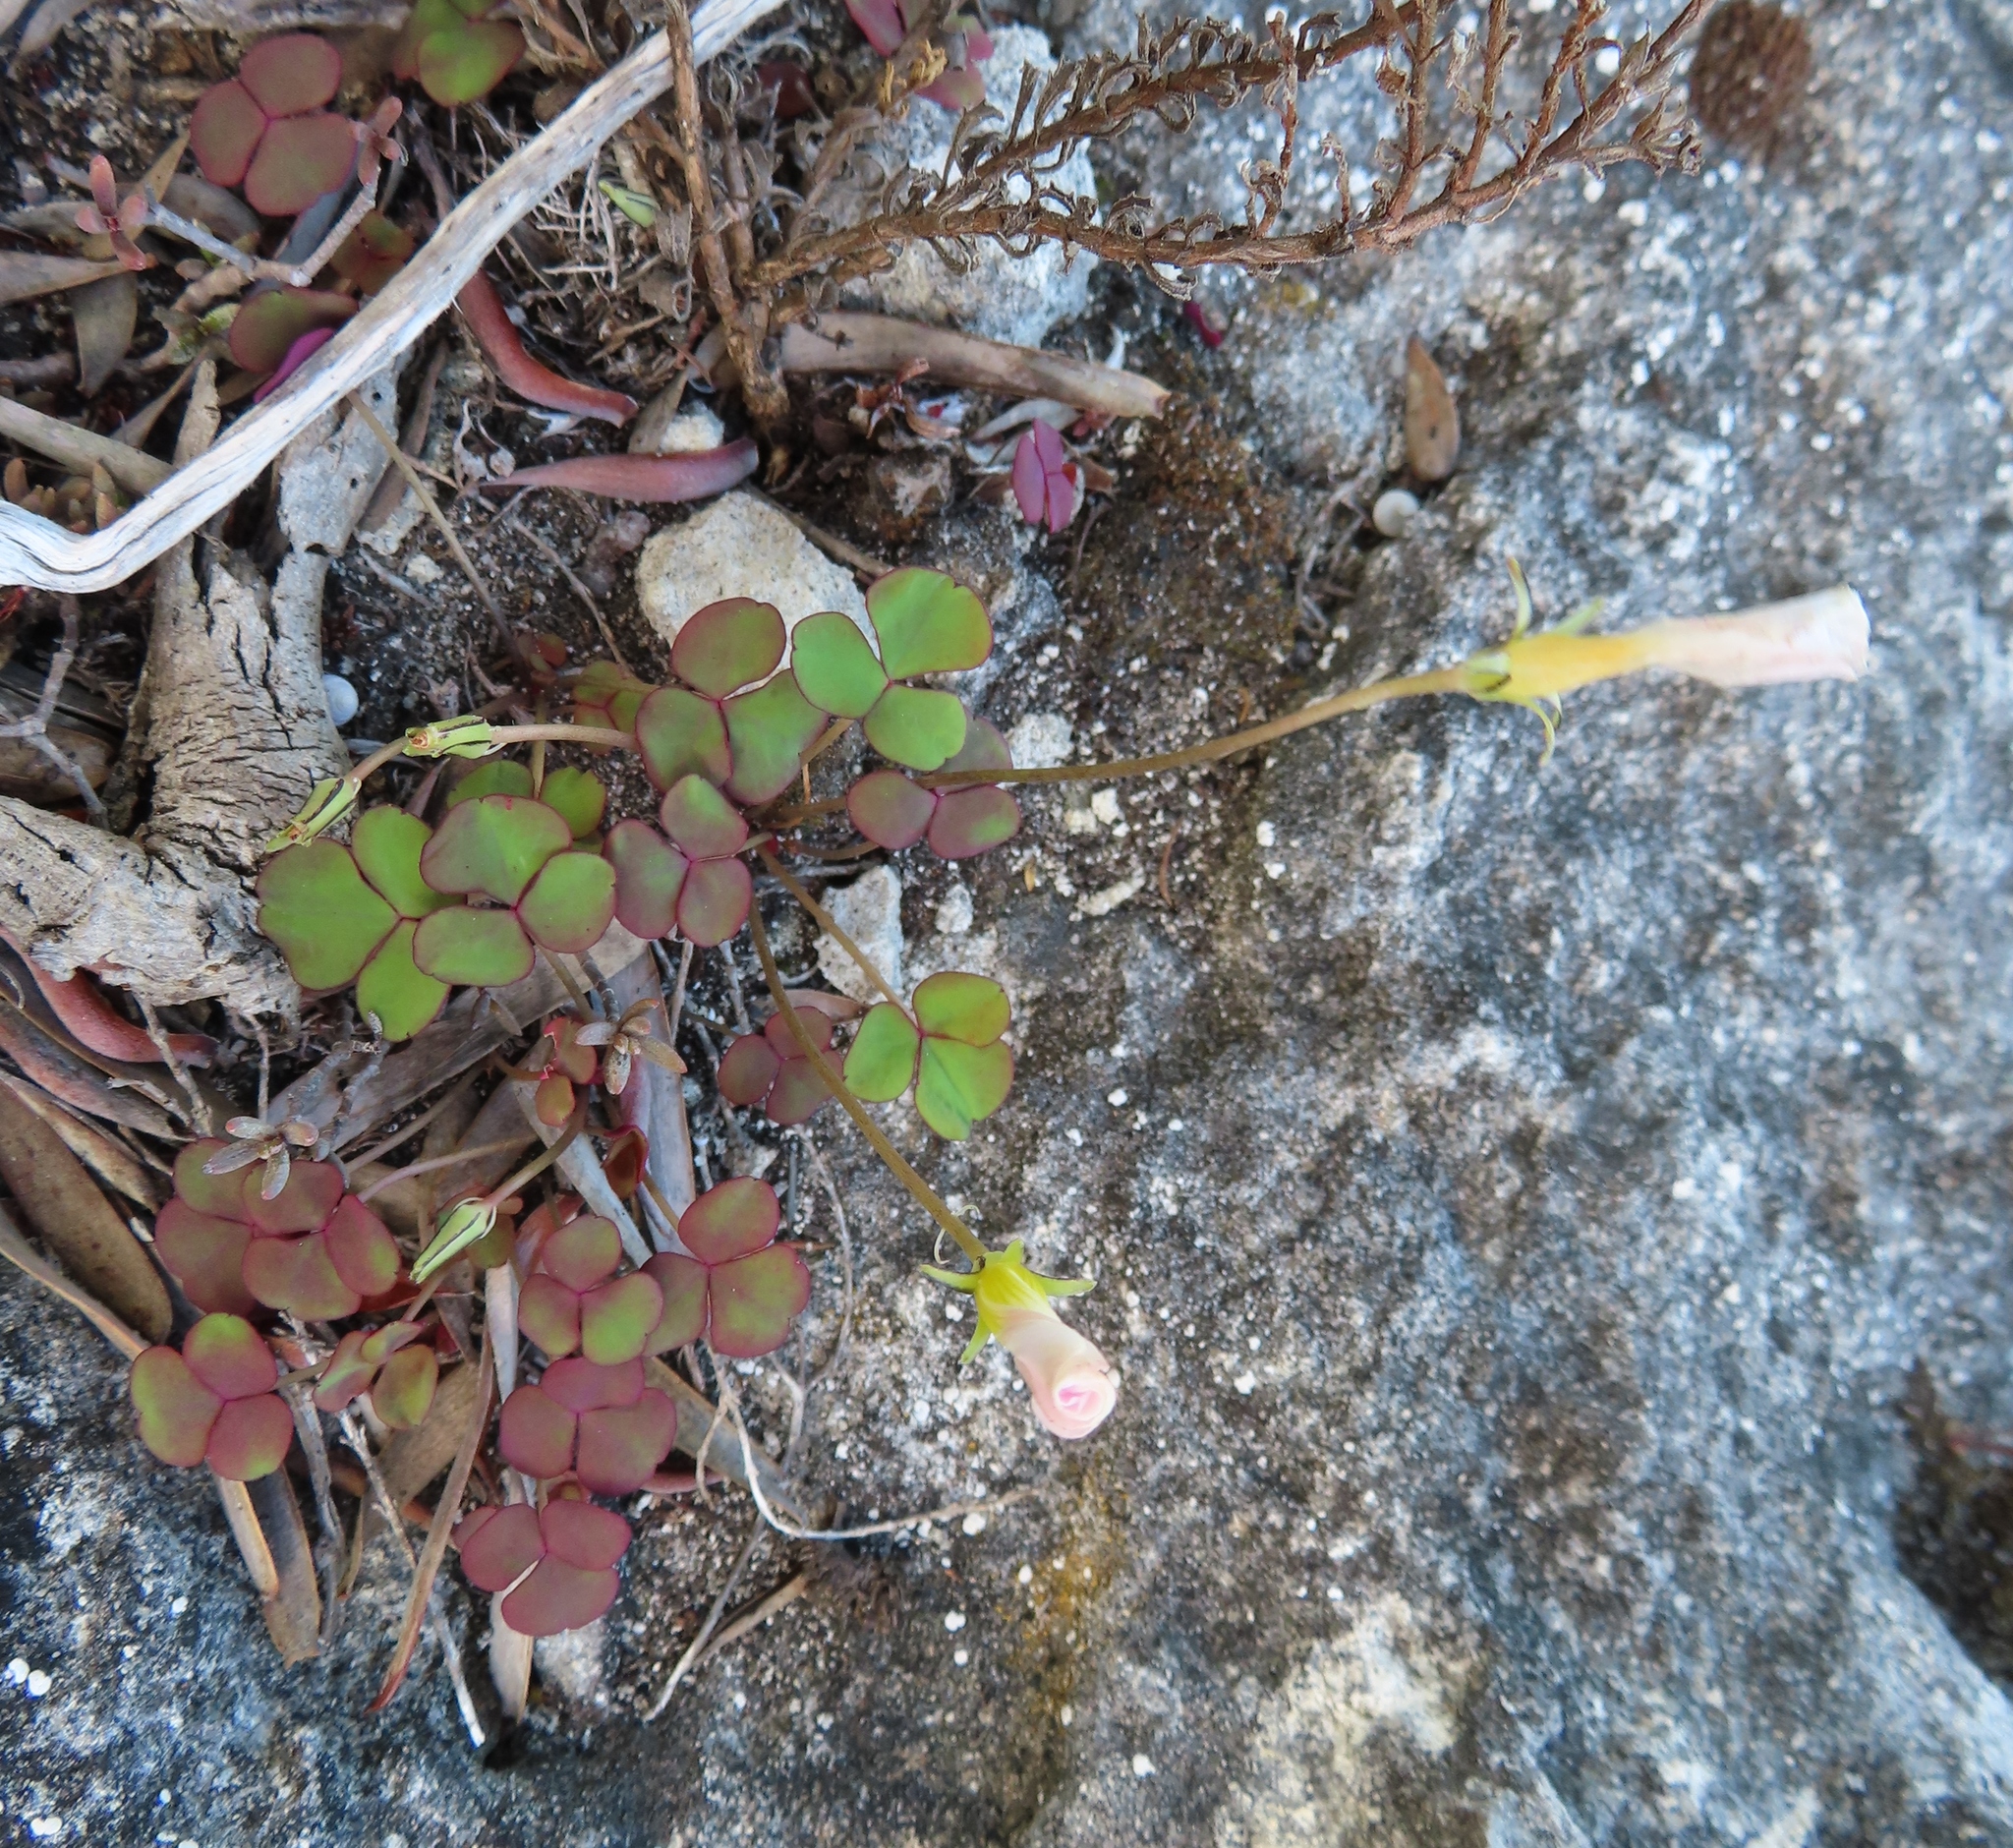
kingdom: Plantae
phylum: Tracheophyta
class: Magnoliopsida
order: Oxalidales
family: Oxalidaceae
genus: Oxalis
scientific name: Oxalis depressa
